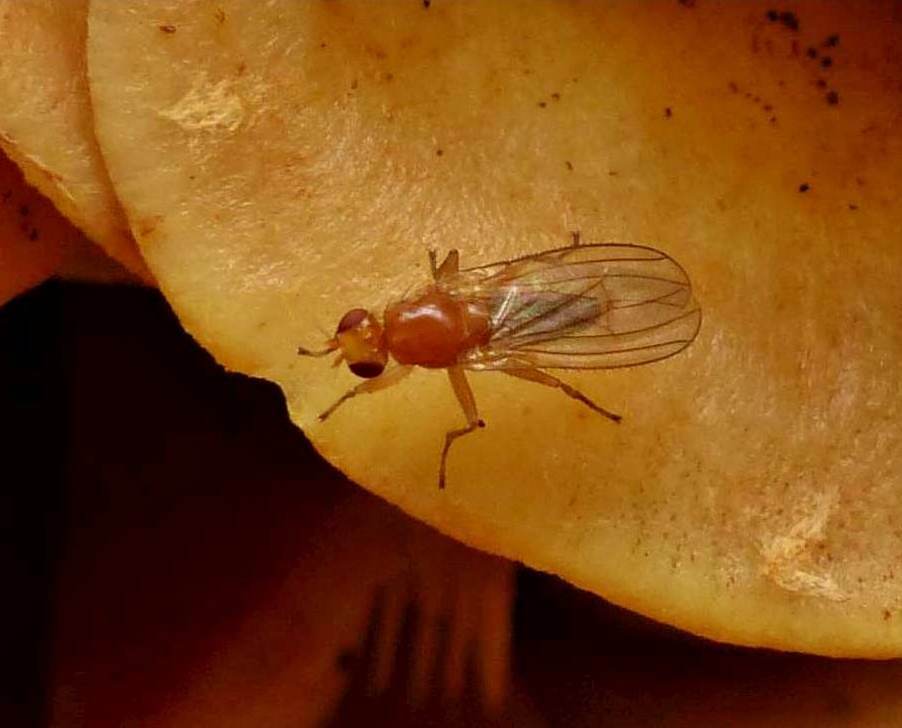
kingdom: Animalia
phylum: Arthropoda
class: Insecta
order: Diptera
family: Heleomyzidae
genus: Allophyla
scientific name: Allophyla laevis
